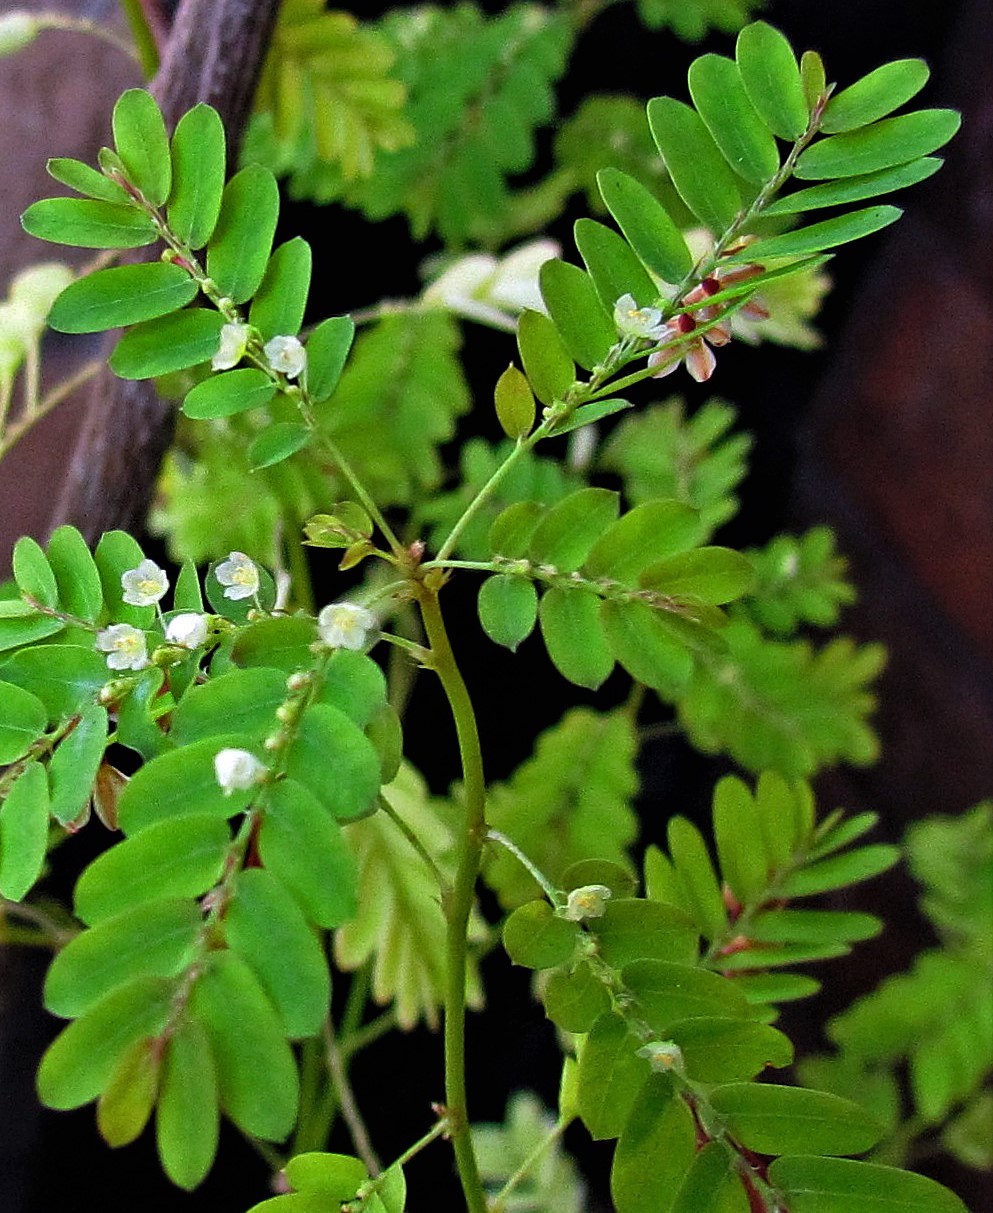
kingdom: Plantae
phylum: Tracheophyta
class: Magnoliopsida
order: Malpighiales
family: Phyllanthaceae
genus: Phyllanthus
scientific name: Phyllanthus niruri
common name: Niruri
